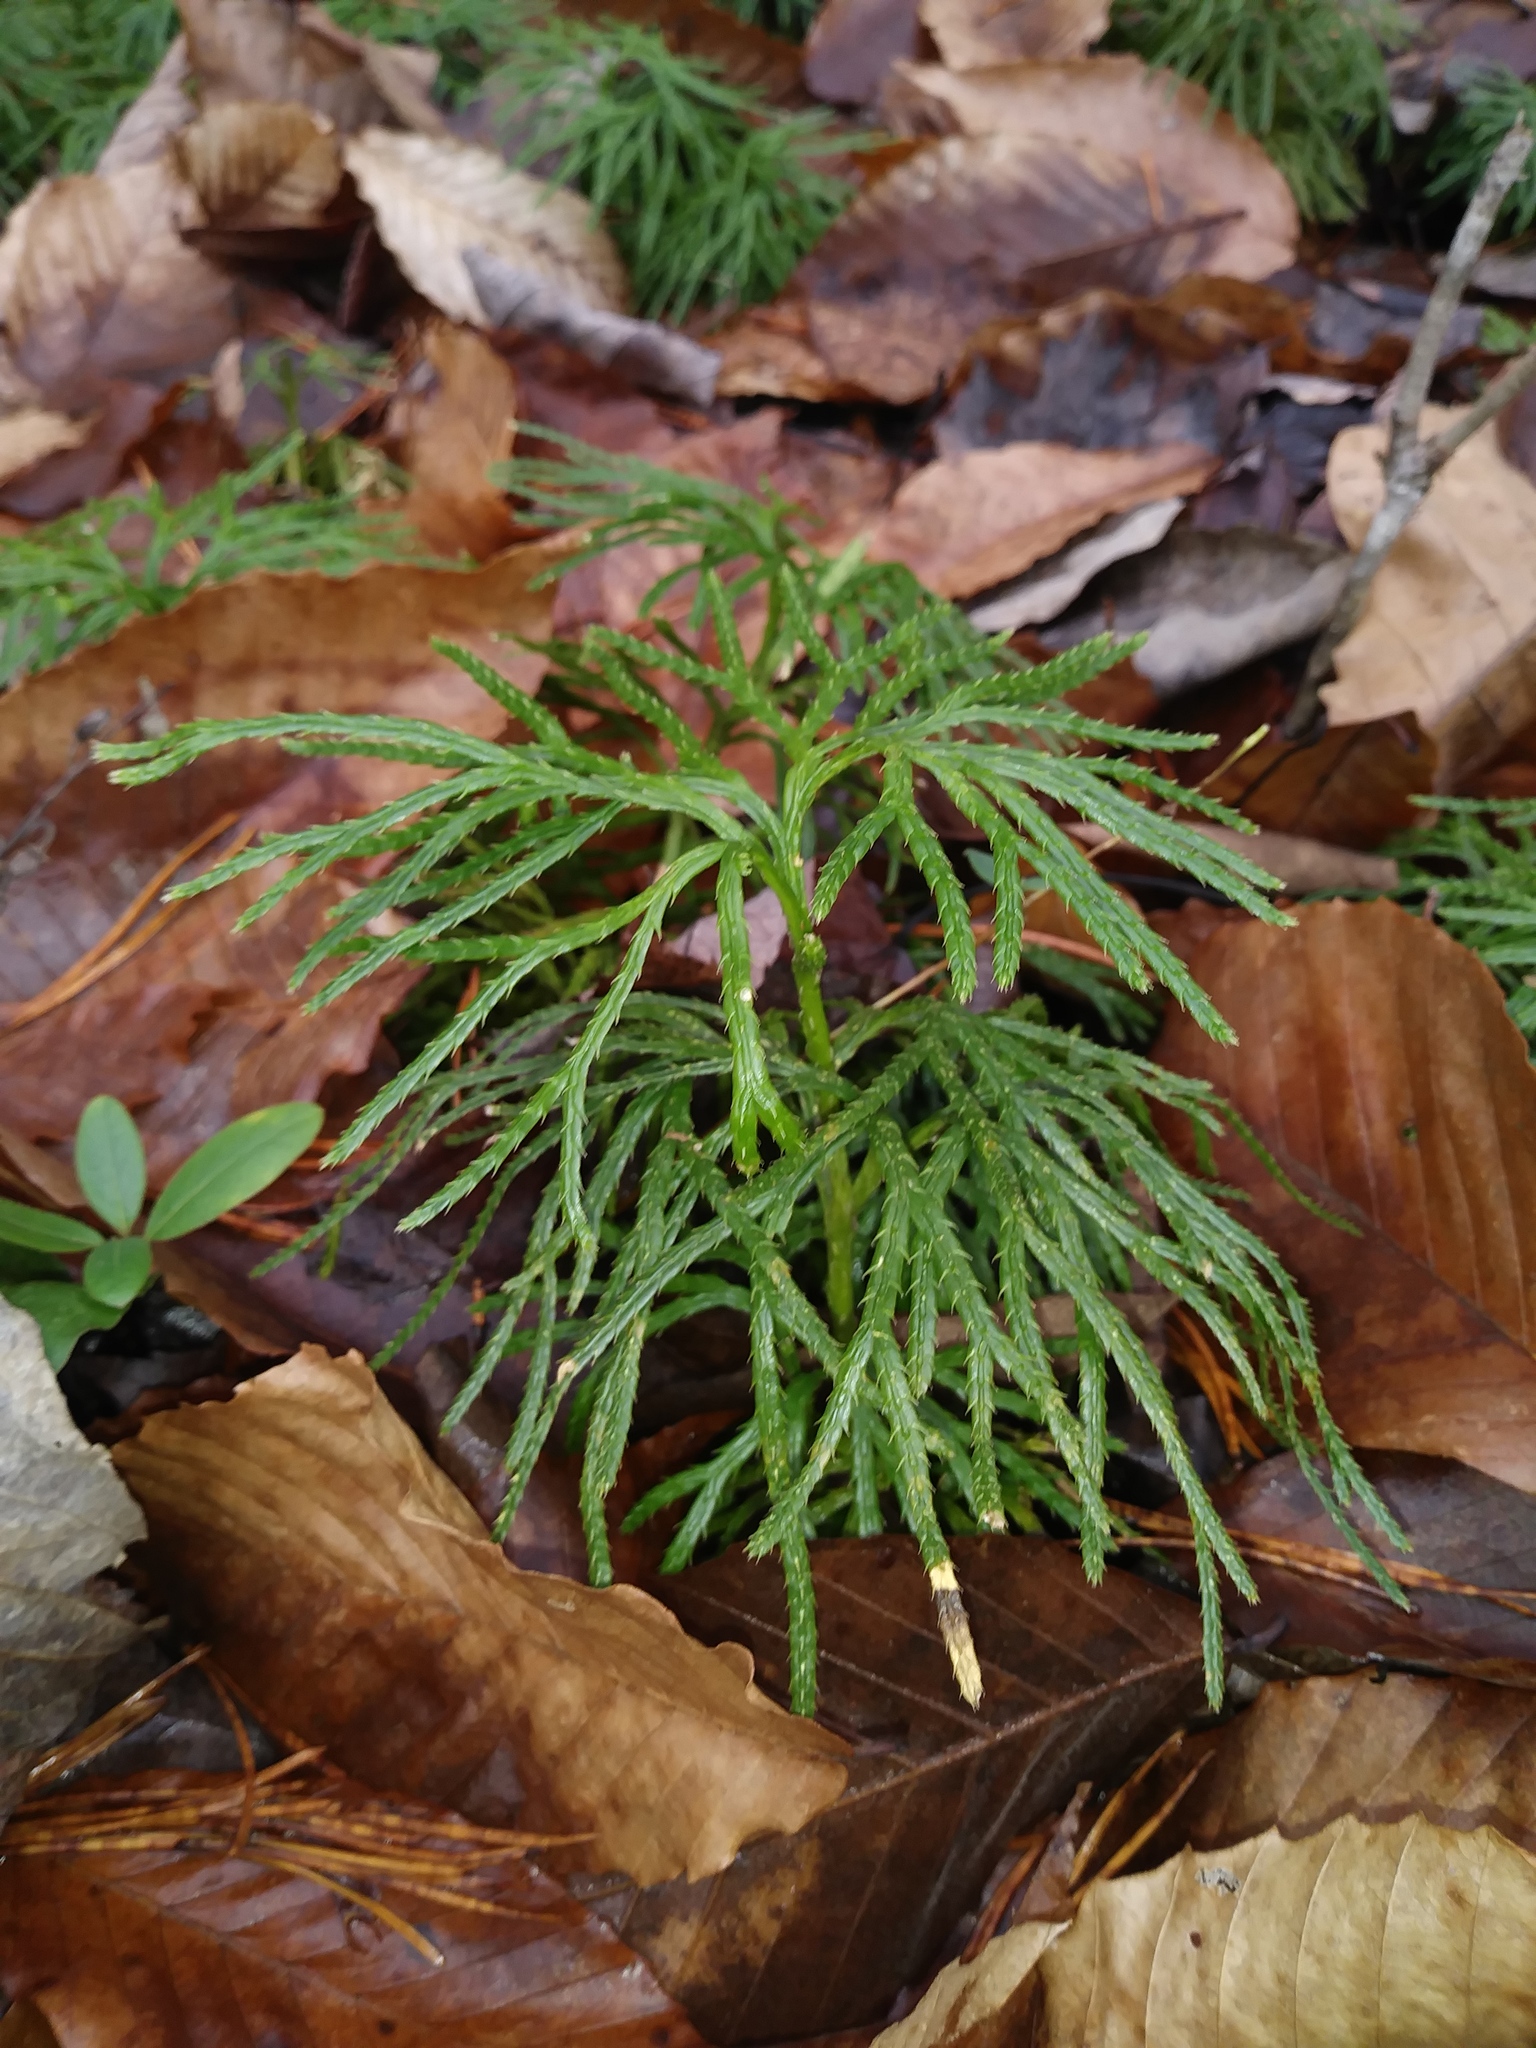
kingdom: Plantae
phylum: Tracheophyta
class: Lycopodiopsida
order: Lycopodiales
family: Lycopodiaceae
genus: Diphasiastrum
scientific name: Diphasiastrum digitatum
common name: Southern running-pine
